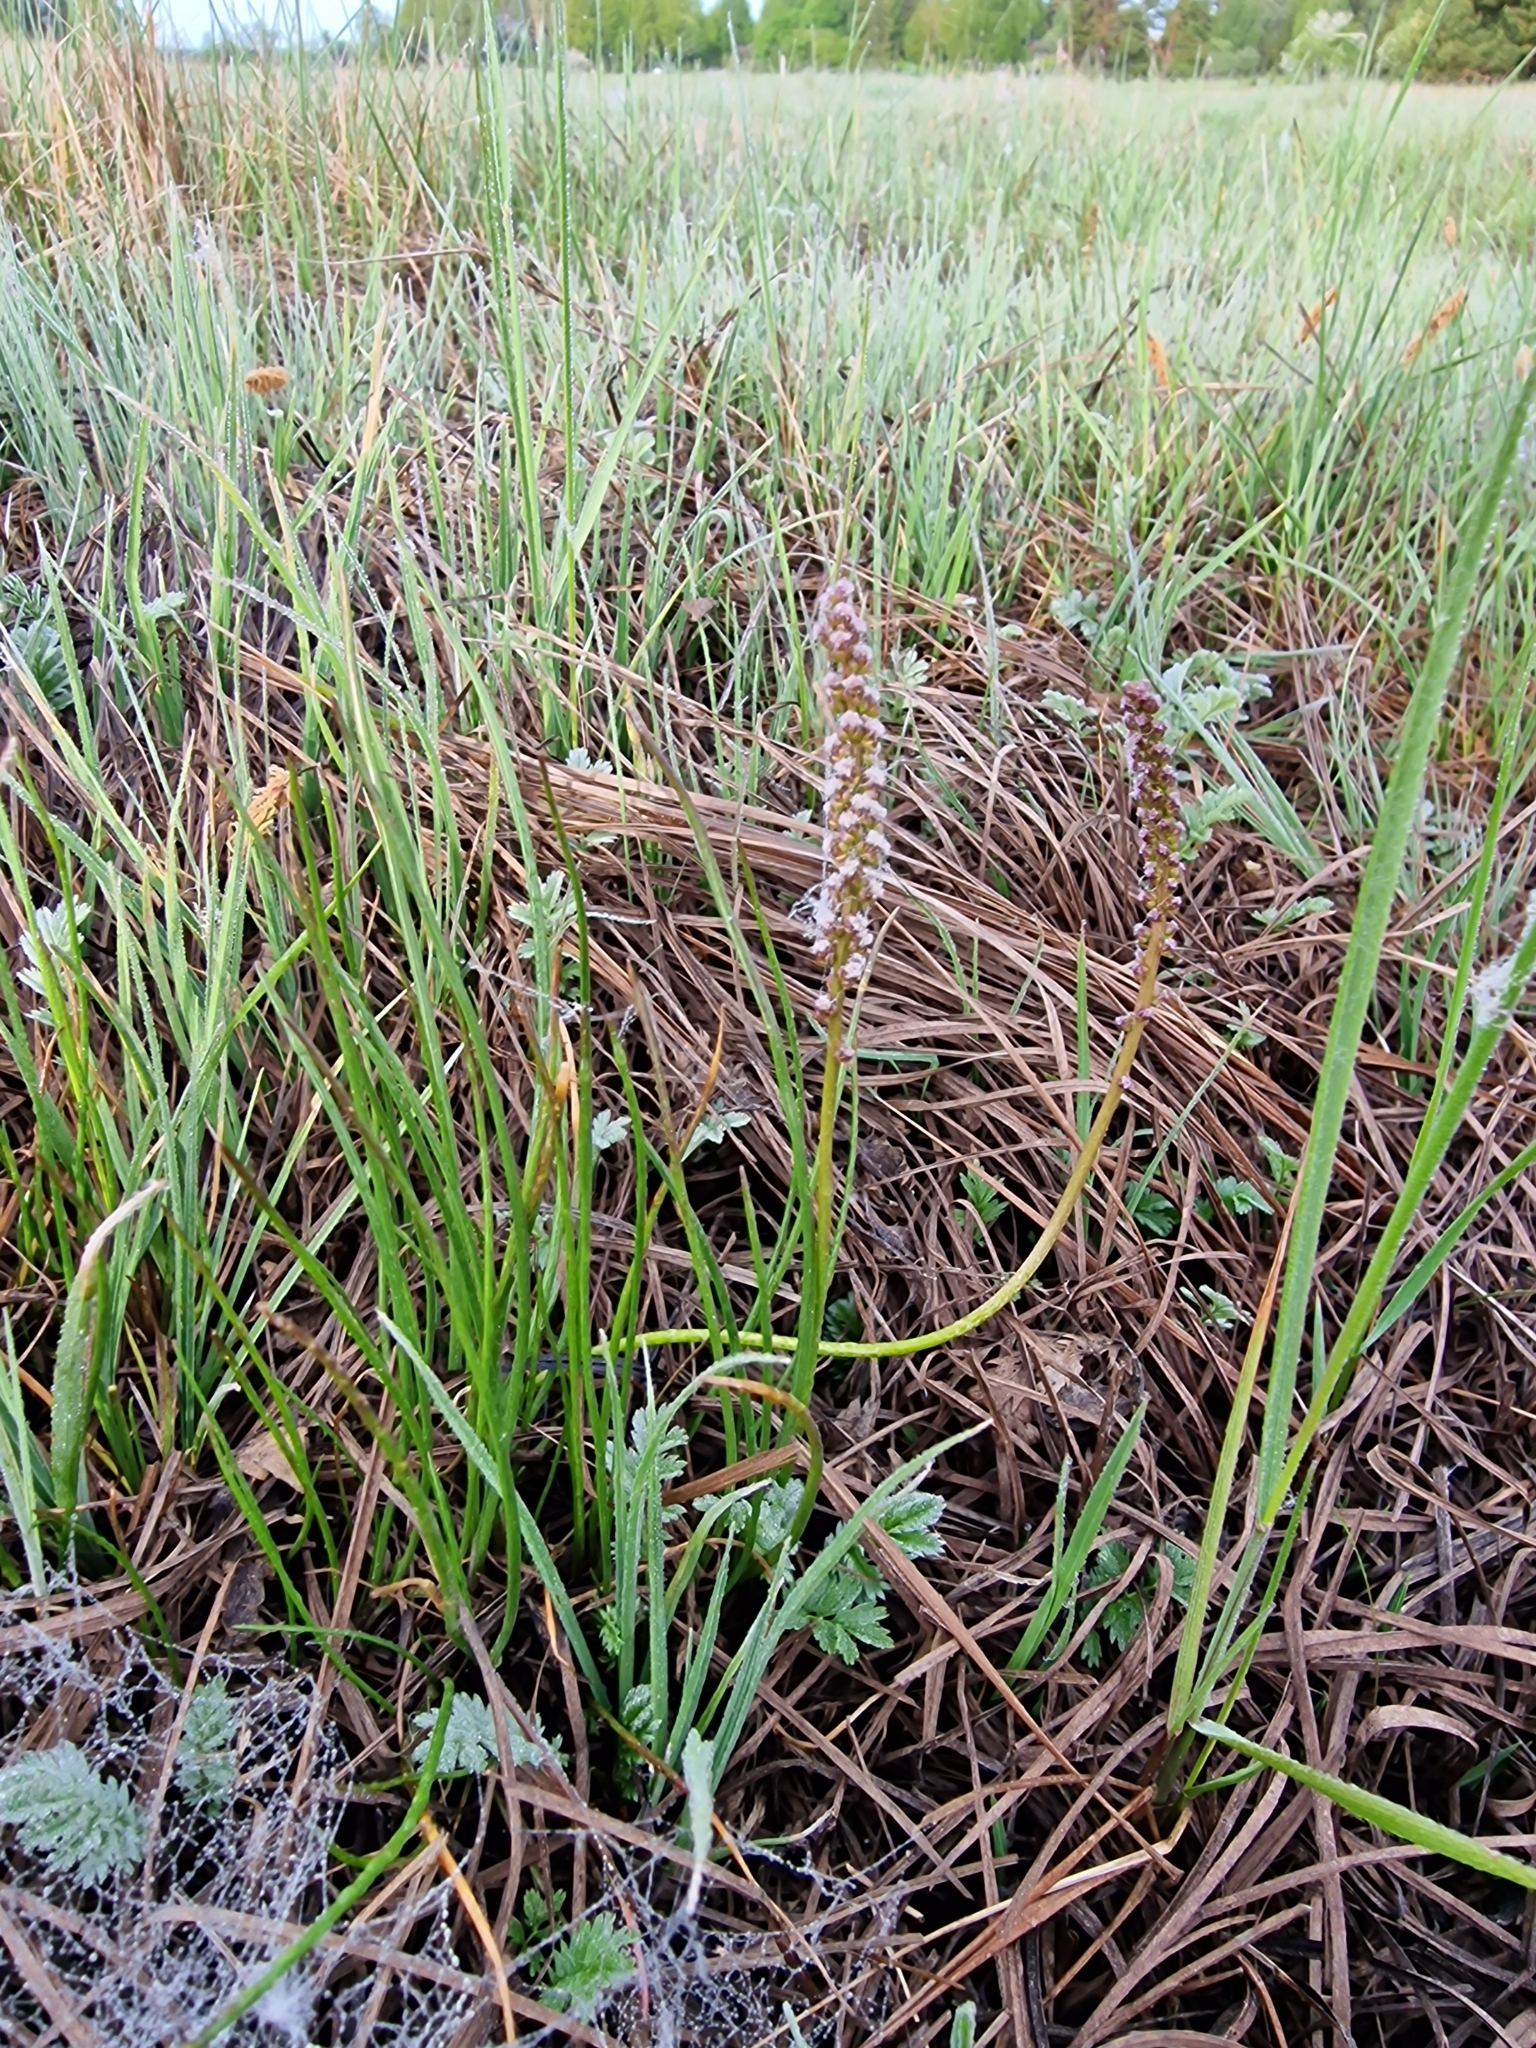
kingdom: Plantae
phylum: Tracheophyta
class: Liliopsida
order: Alismatales
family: Juncaginaceae
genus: Triglochin
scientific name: Triglochin maritima
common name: Sea arrowgrass
